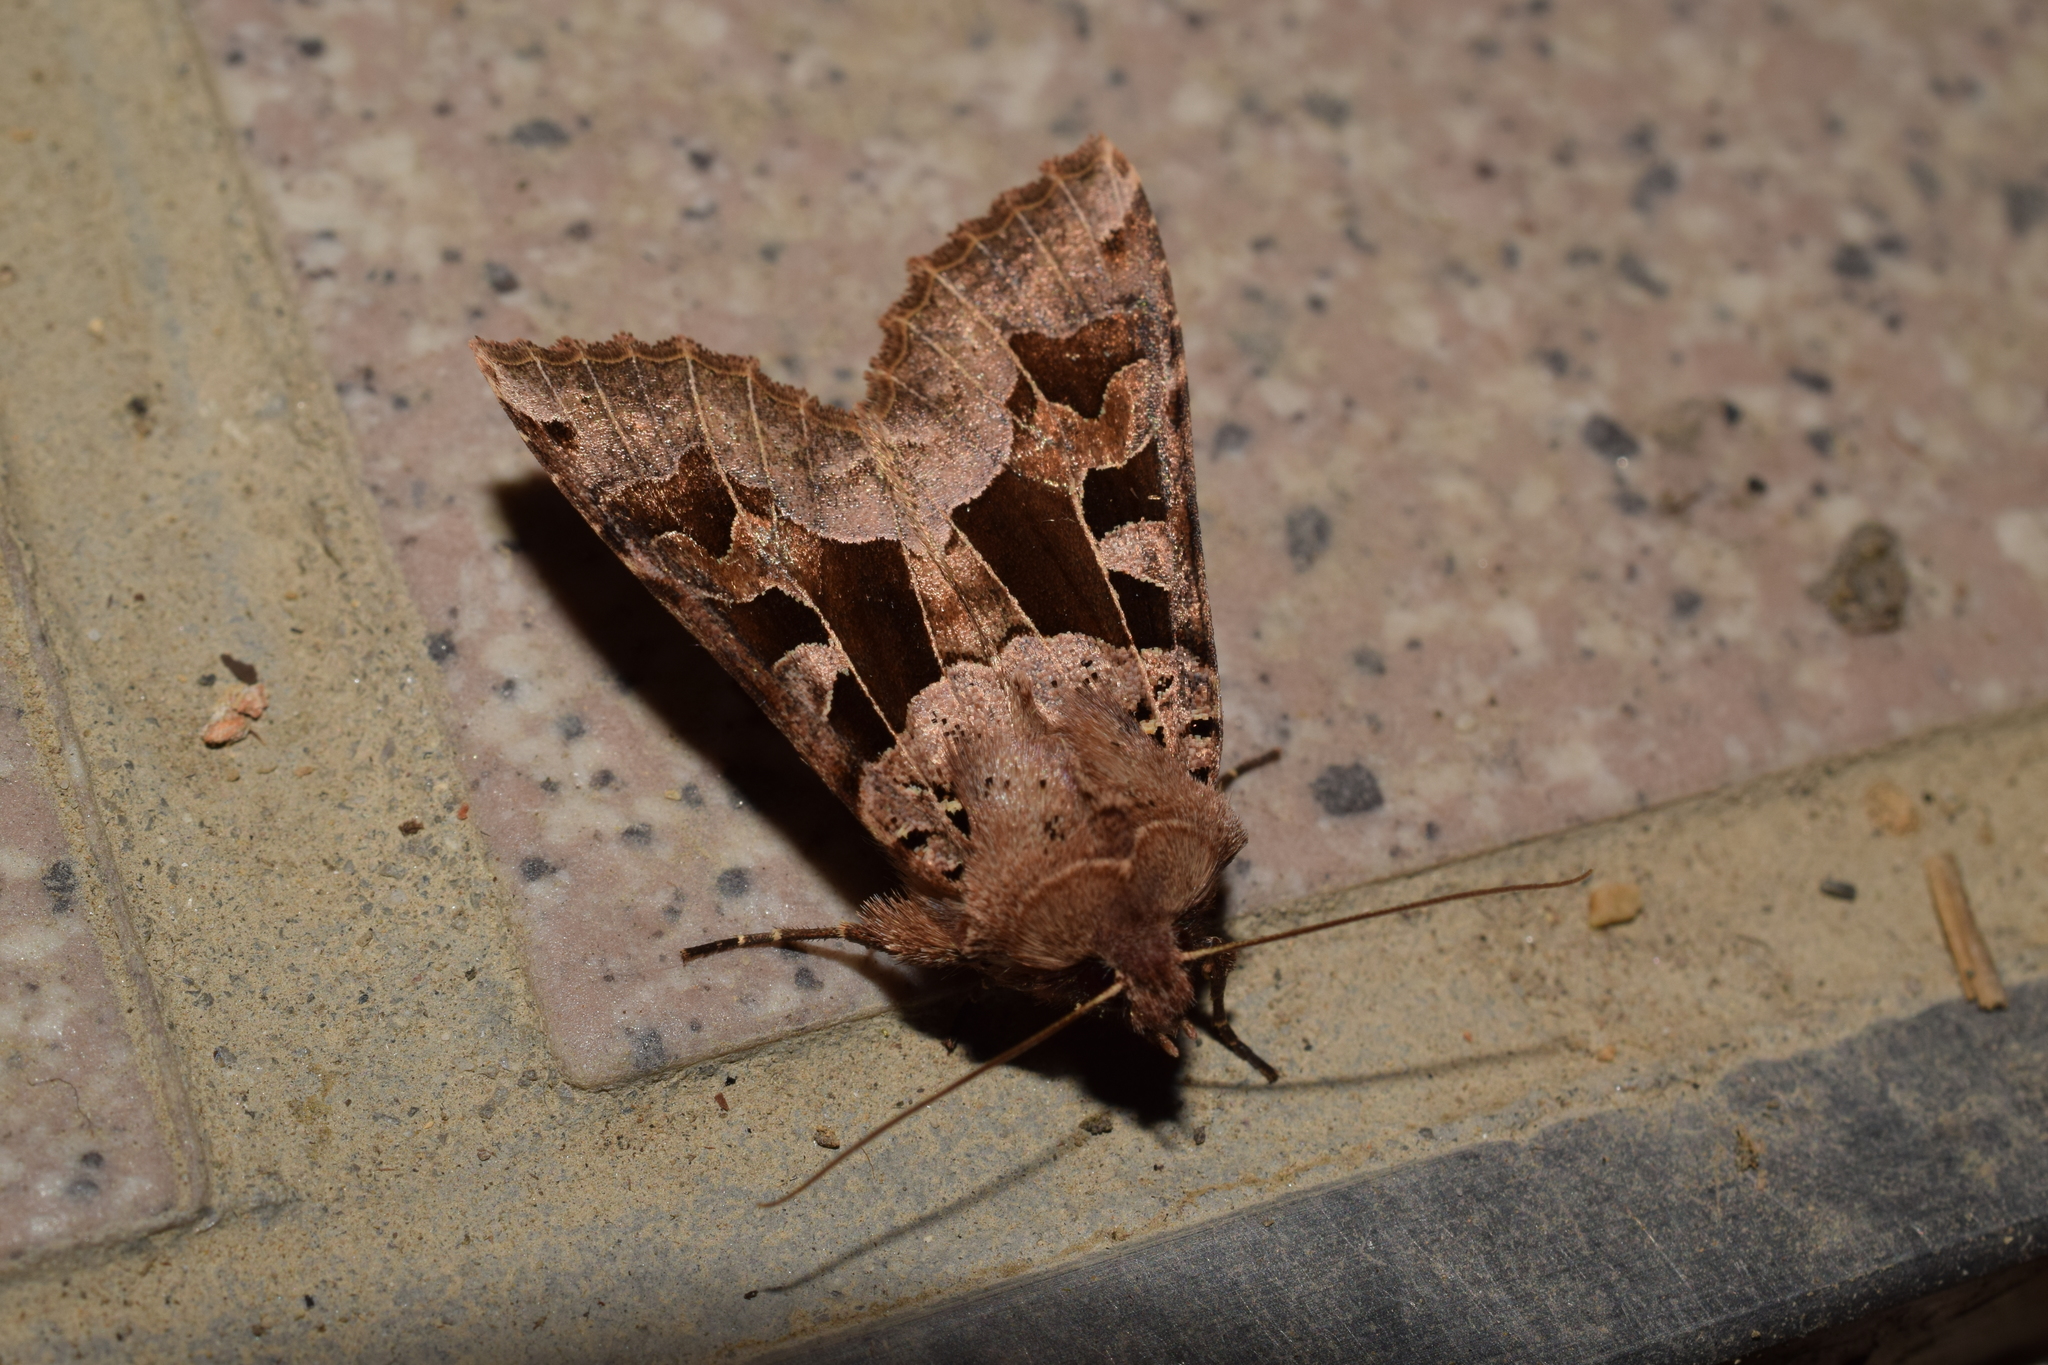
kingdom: Animalia
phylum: Arthropoda
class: Insecta
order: Lepidoptera
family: Noctuidae
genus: Clavipalpula
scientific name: Clavipalpula aurariae
